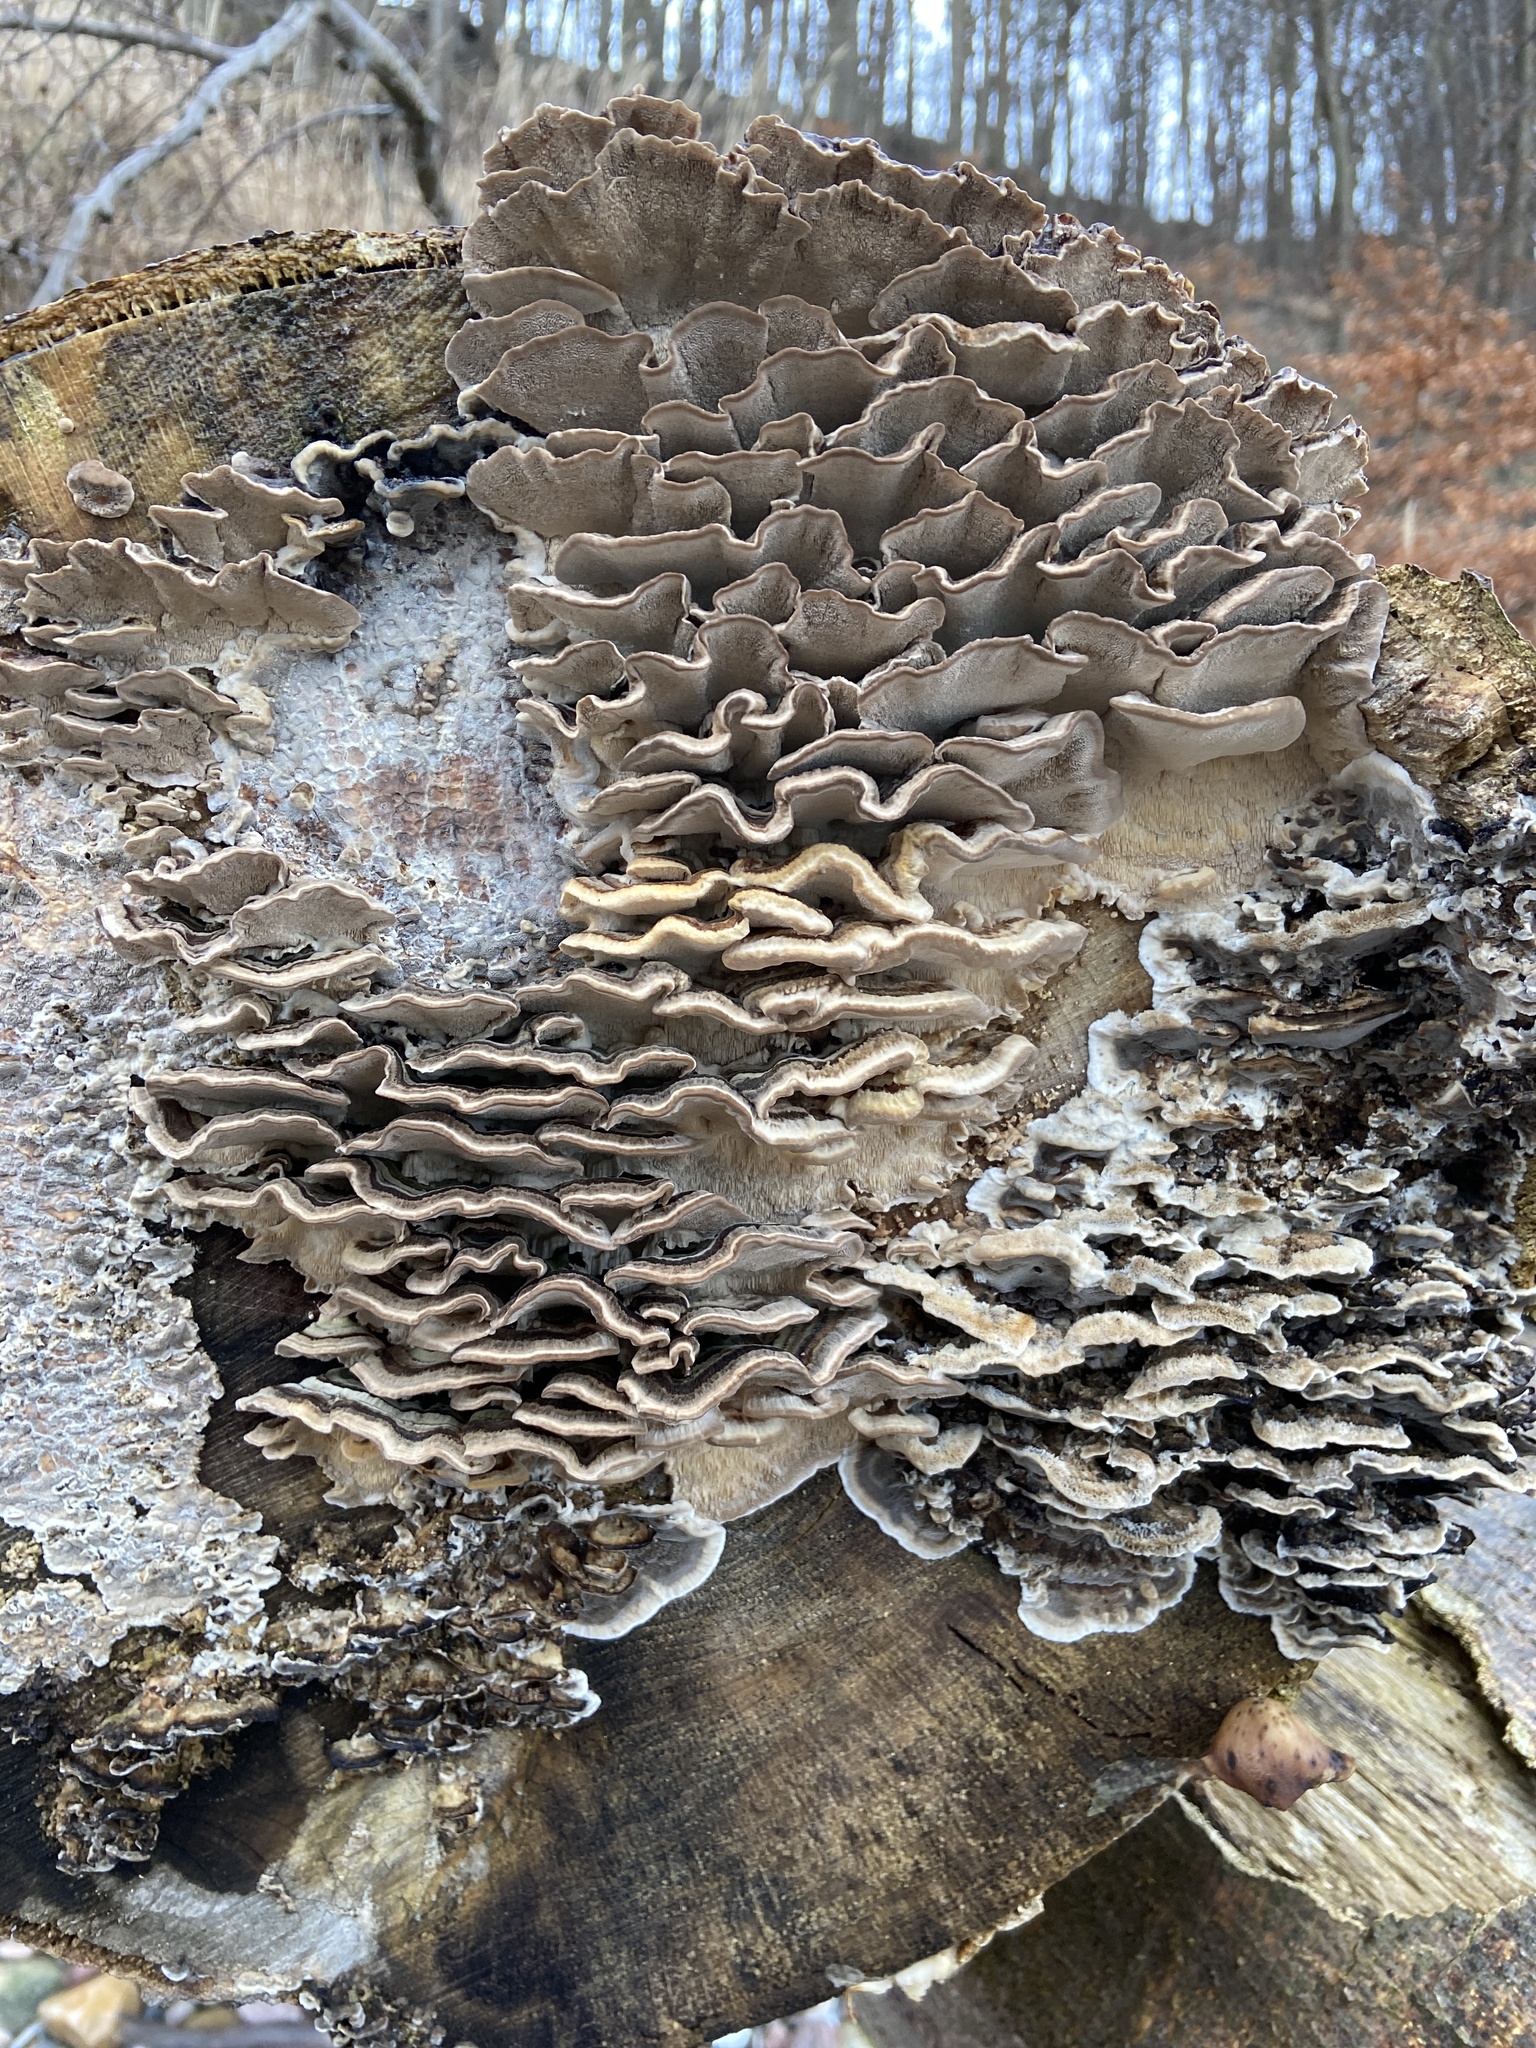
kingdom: Fungi
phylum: Basidiomycota
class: Agaricomycetes
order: Polyporales
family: Polyporaceae
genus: Trametes
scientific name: Trametes versicolor
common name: Turkeytail
